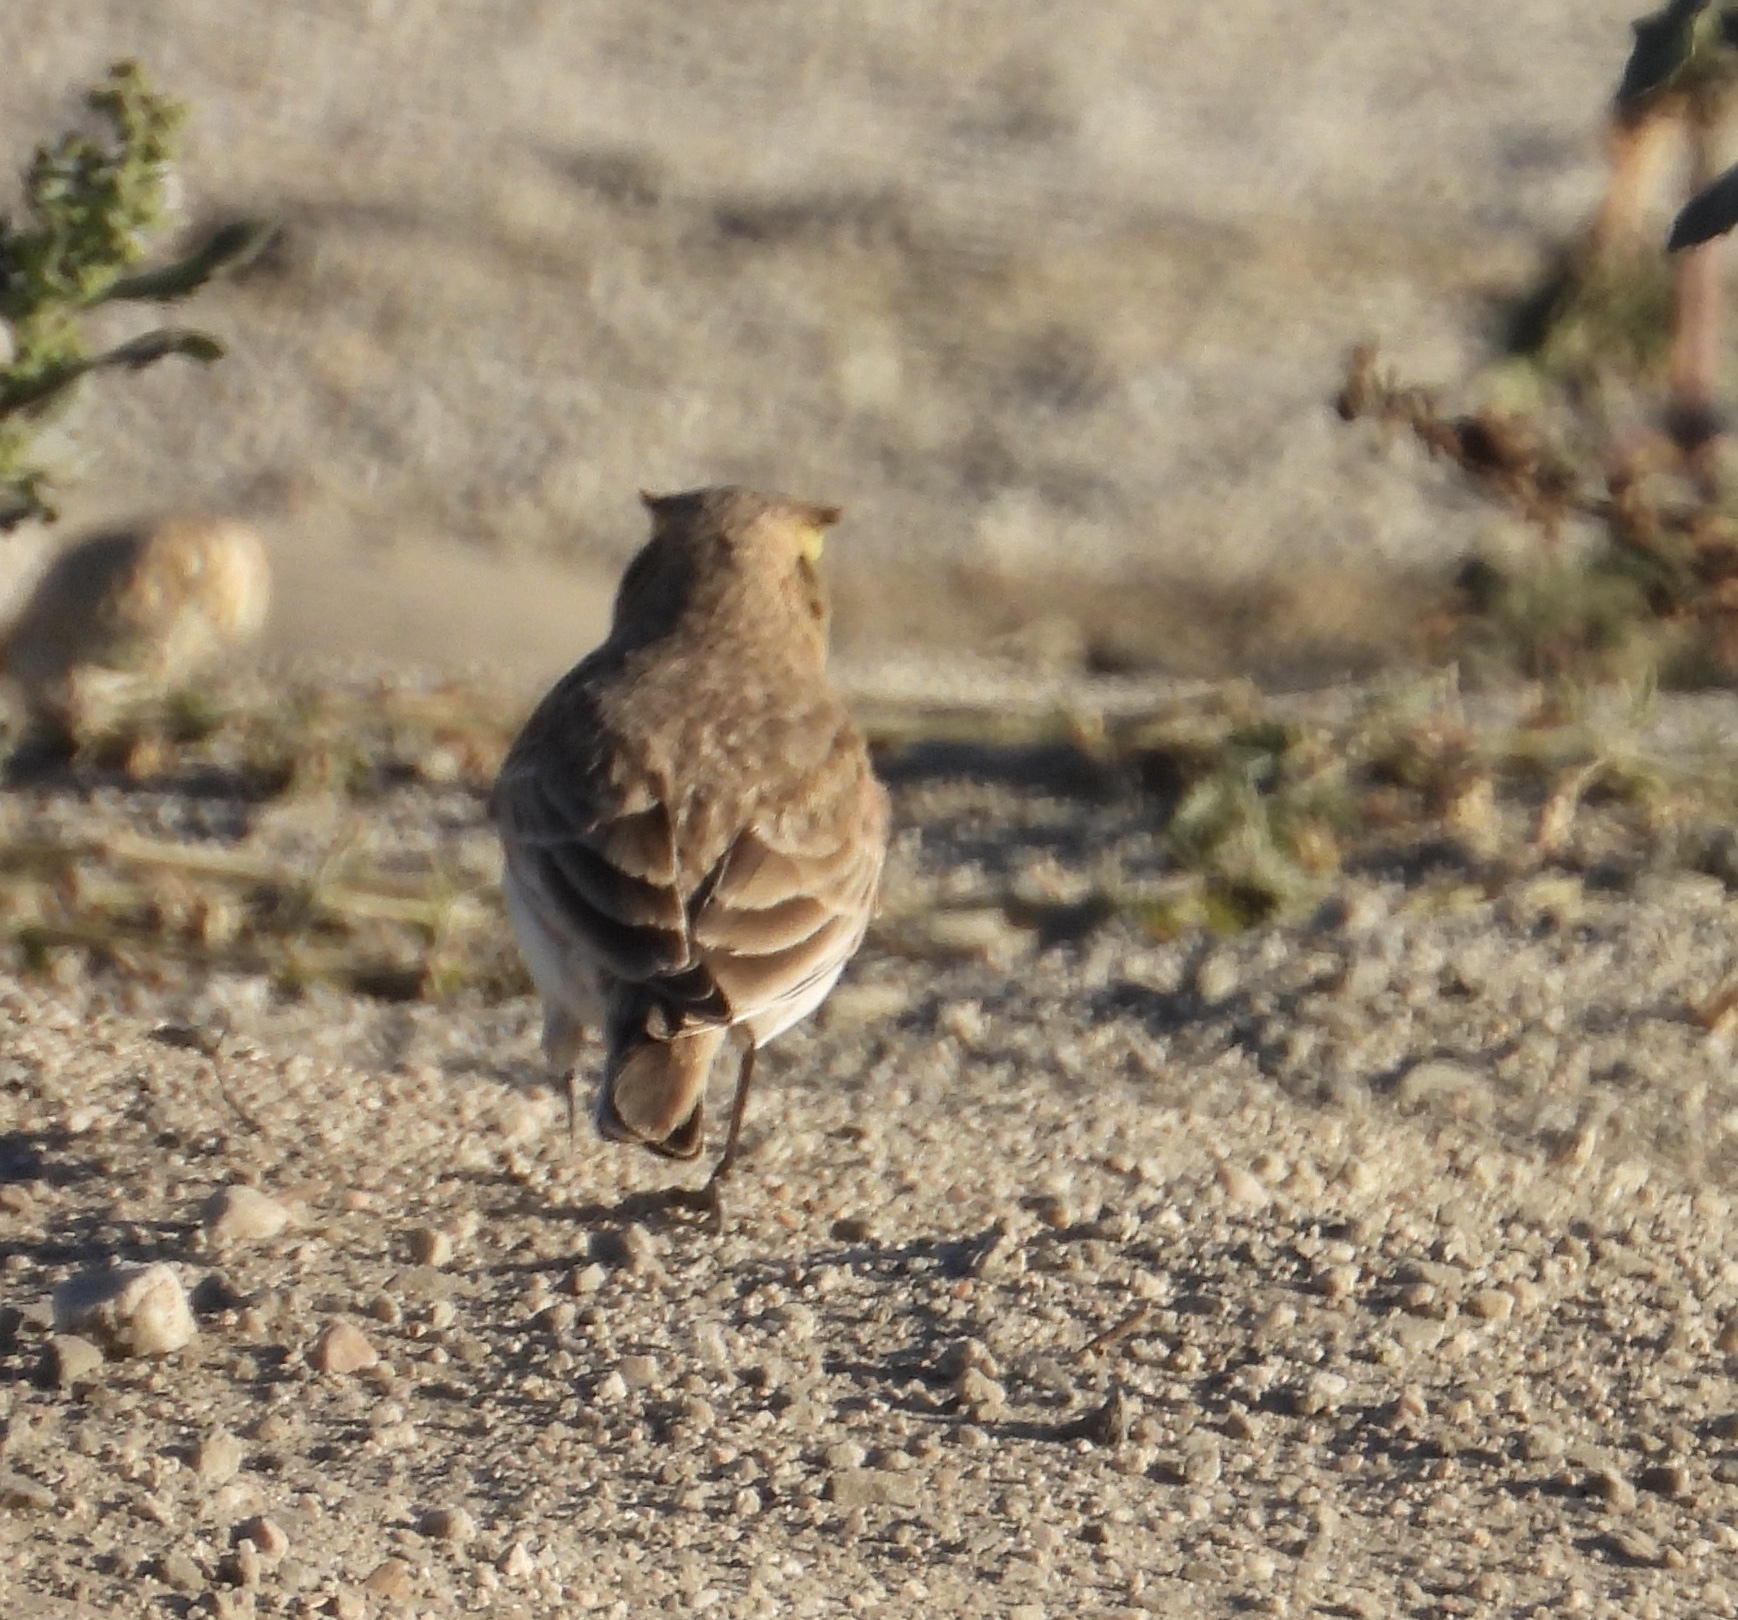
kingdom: Animalia
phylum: Chordata
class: Aves
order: Passeriformes
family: Alaudidae
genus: Eremophila
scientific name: Eremophila alpestris
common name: Horned lark
